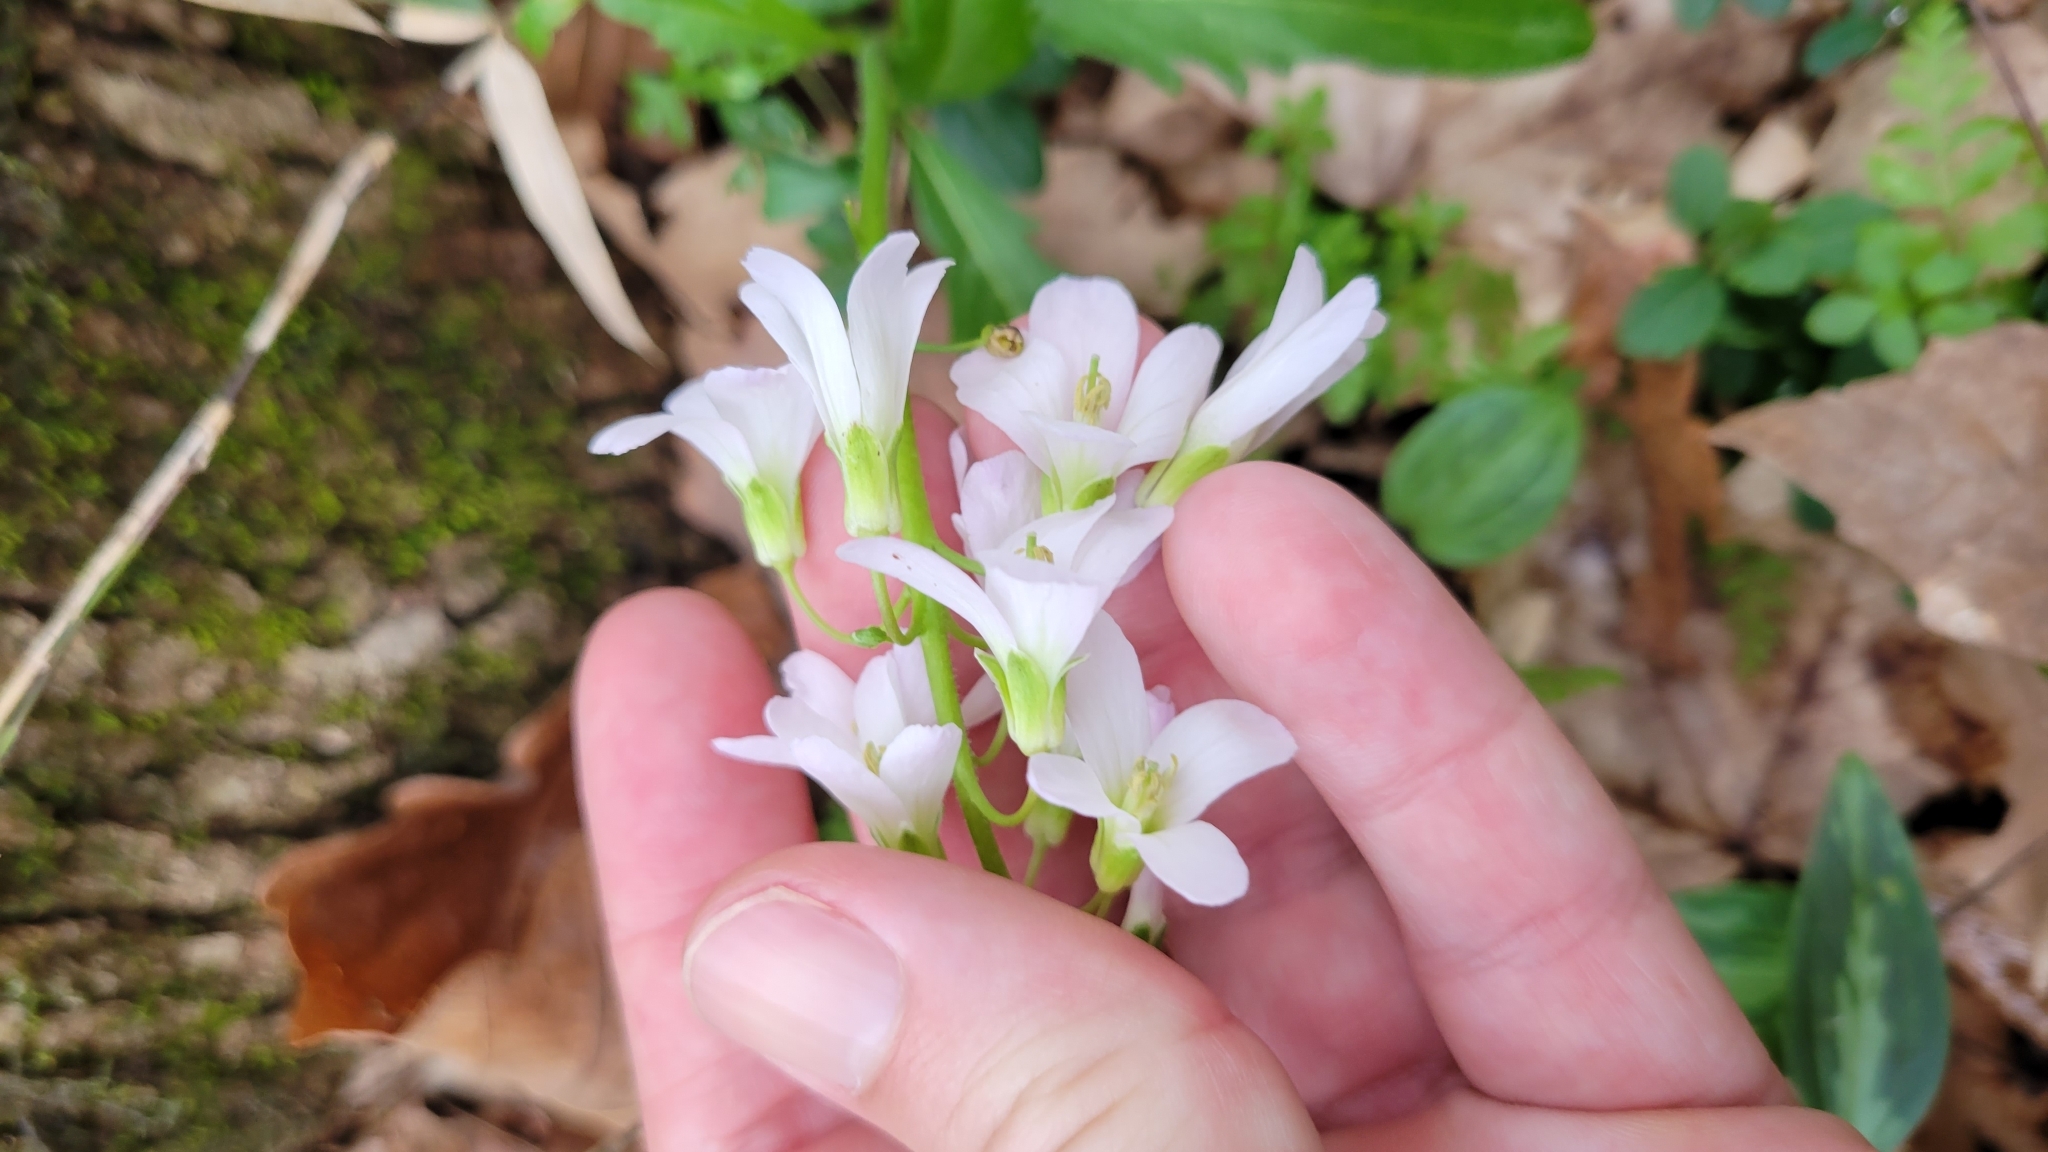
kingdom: Plantae
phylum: Tracheophyta
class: Magnoliopsida
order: Brassicales
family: Brassicaceae
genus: Cardamine
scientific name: Cardamine bulbosa
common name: Spring cress
